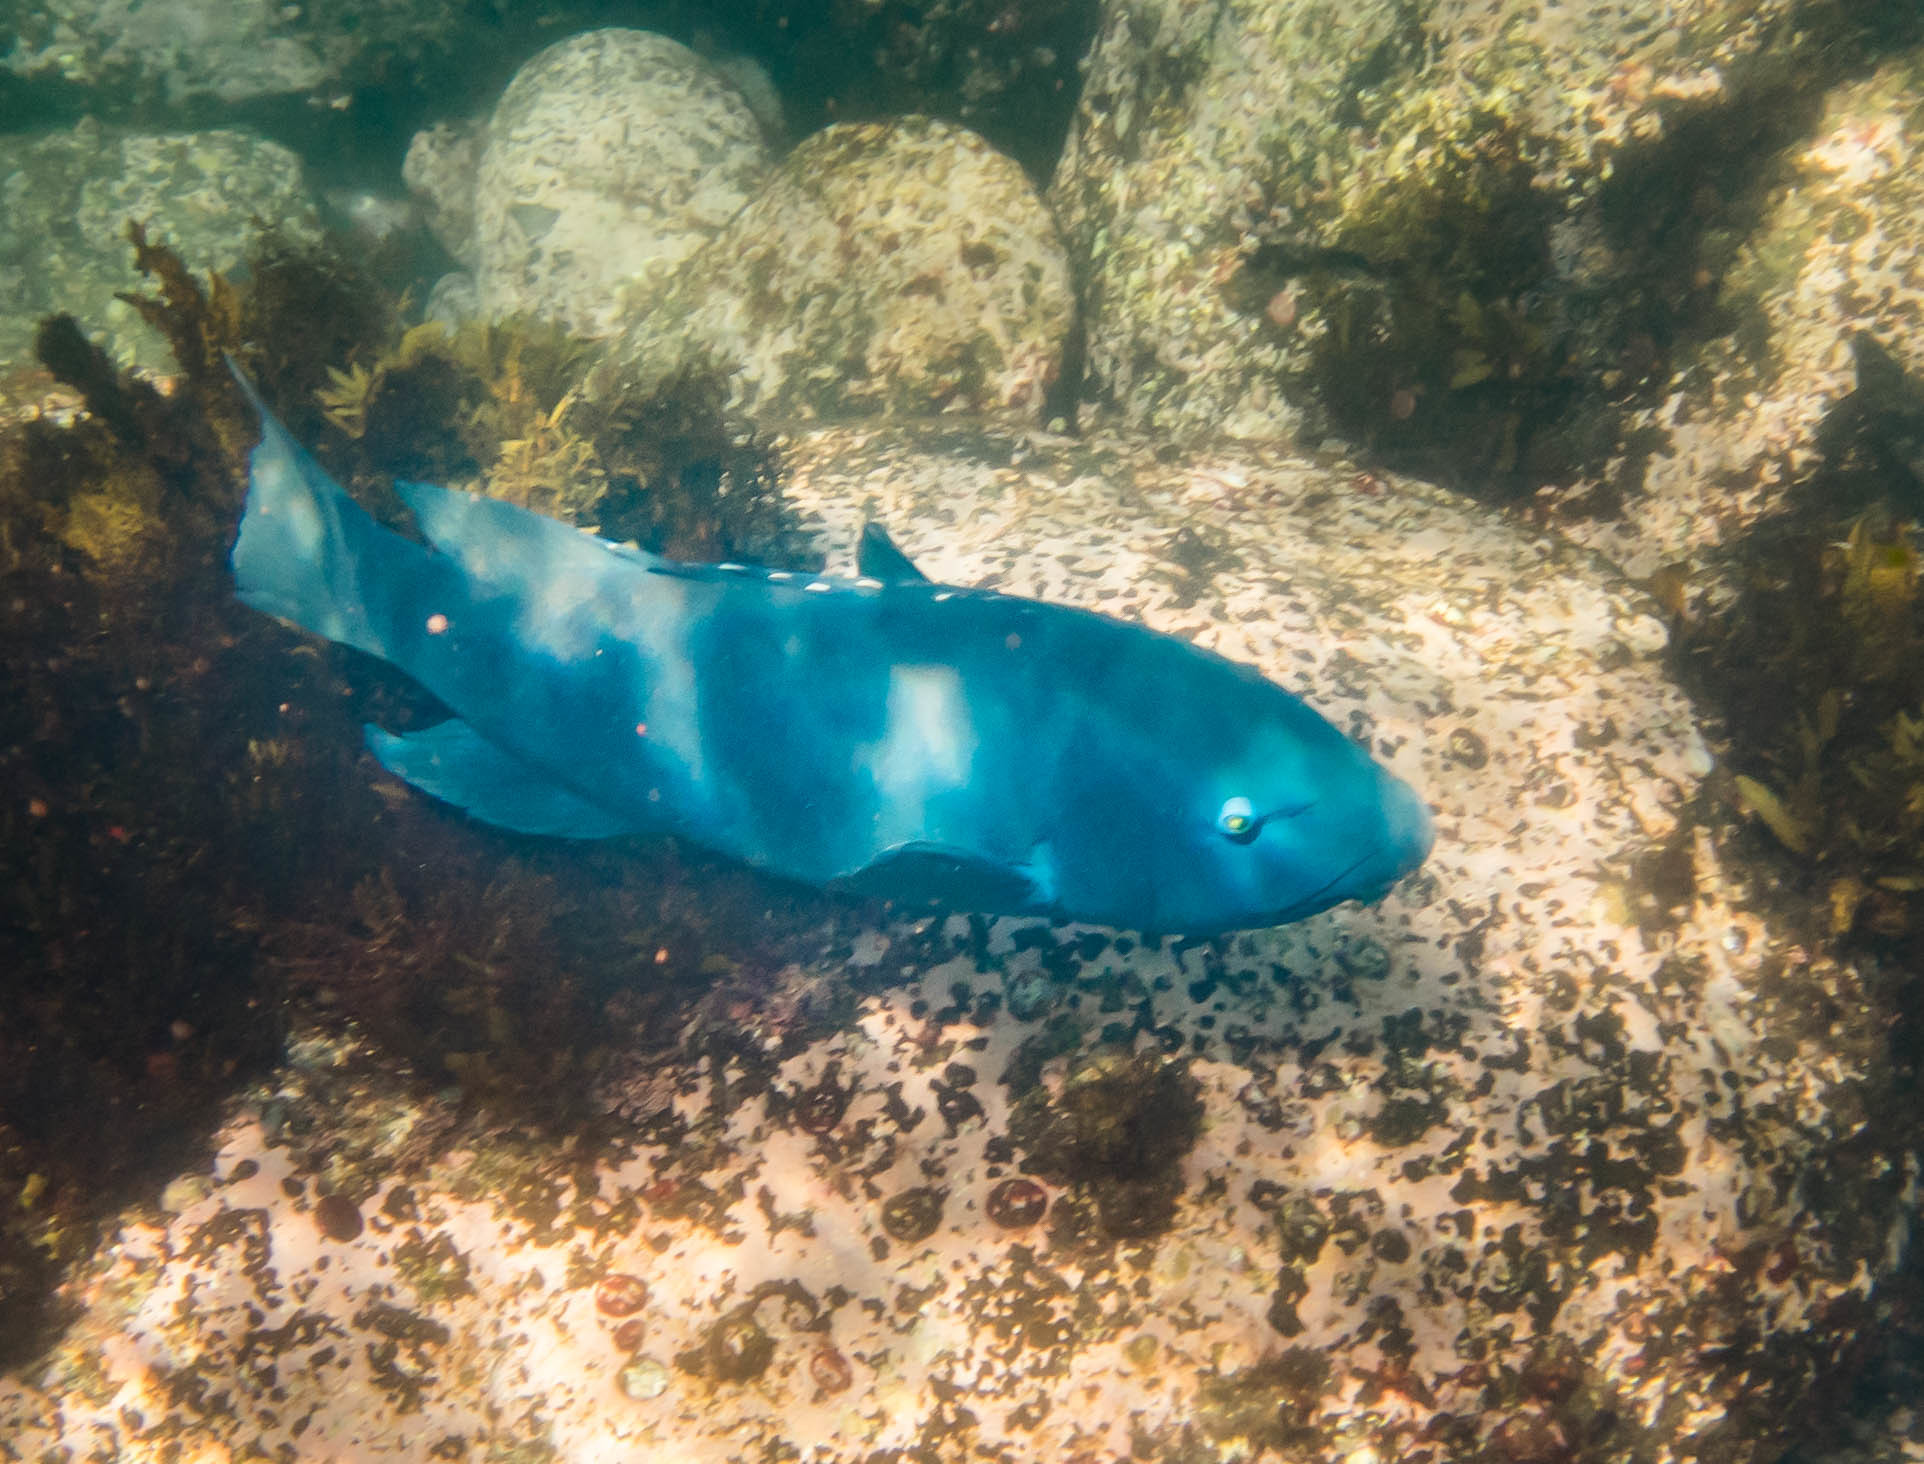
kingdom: Animalia
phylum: Chordata
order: Perciformes
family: Labridae
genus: Achoerodus
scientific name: Achoerodus viridis
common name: Brown groper
